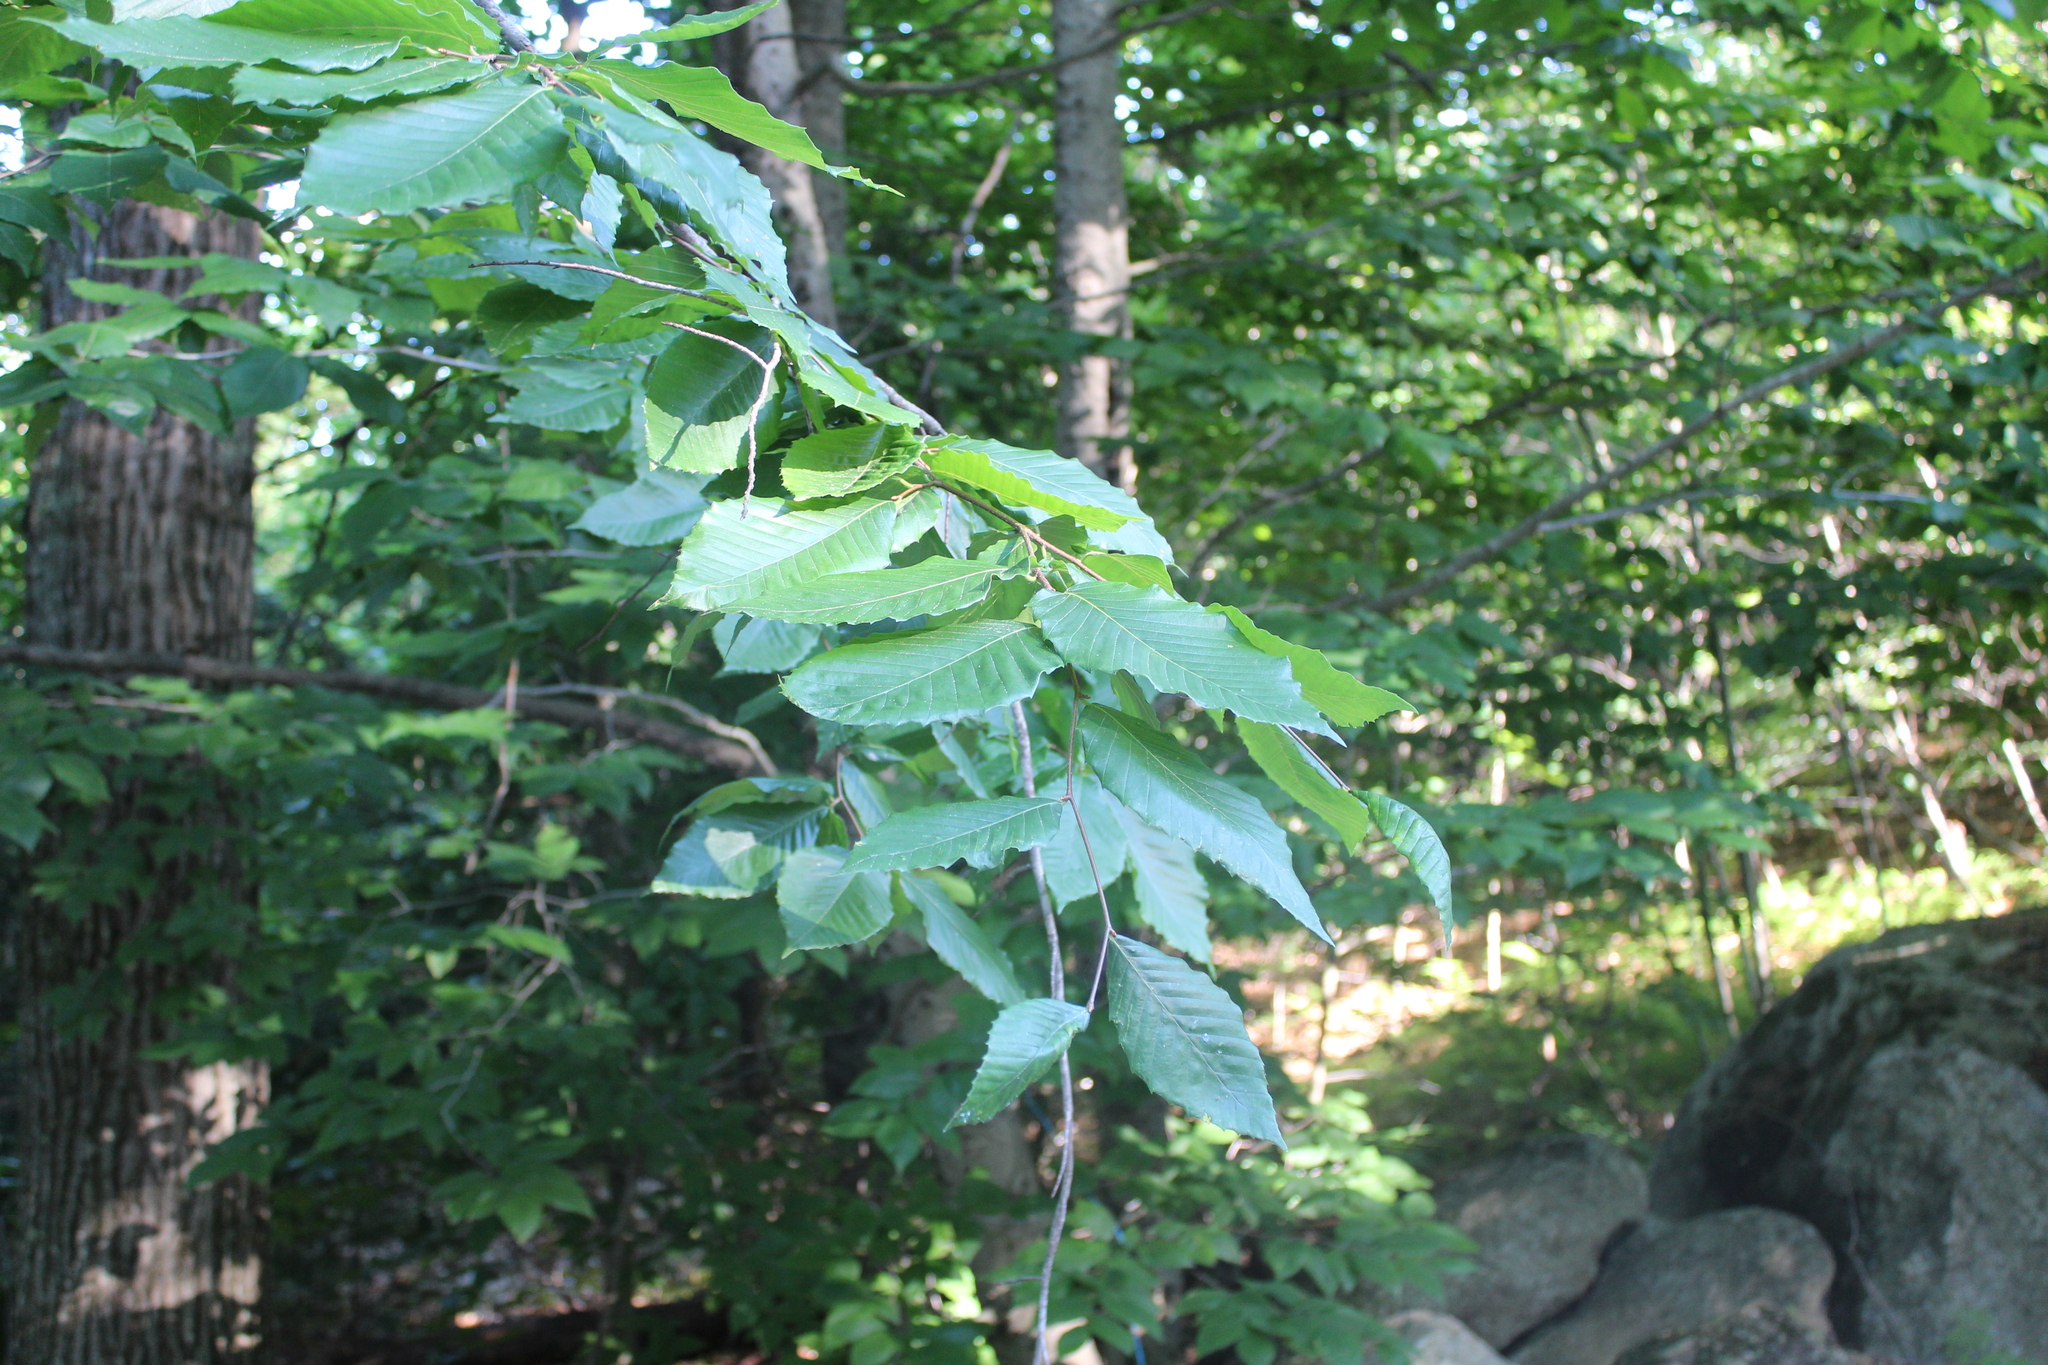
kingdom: Plantae
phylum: Tracheophyta
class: Magnoliopsida
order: Fagales
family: Fagaceae
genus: Fagus
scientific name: Fagus grandifolia
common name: American beech
